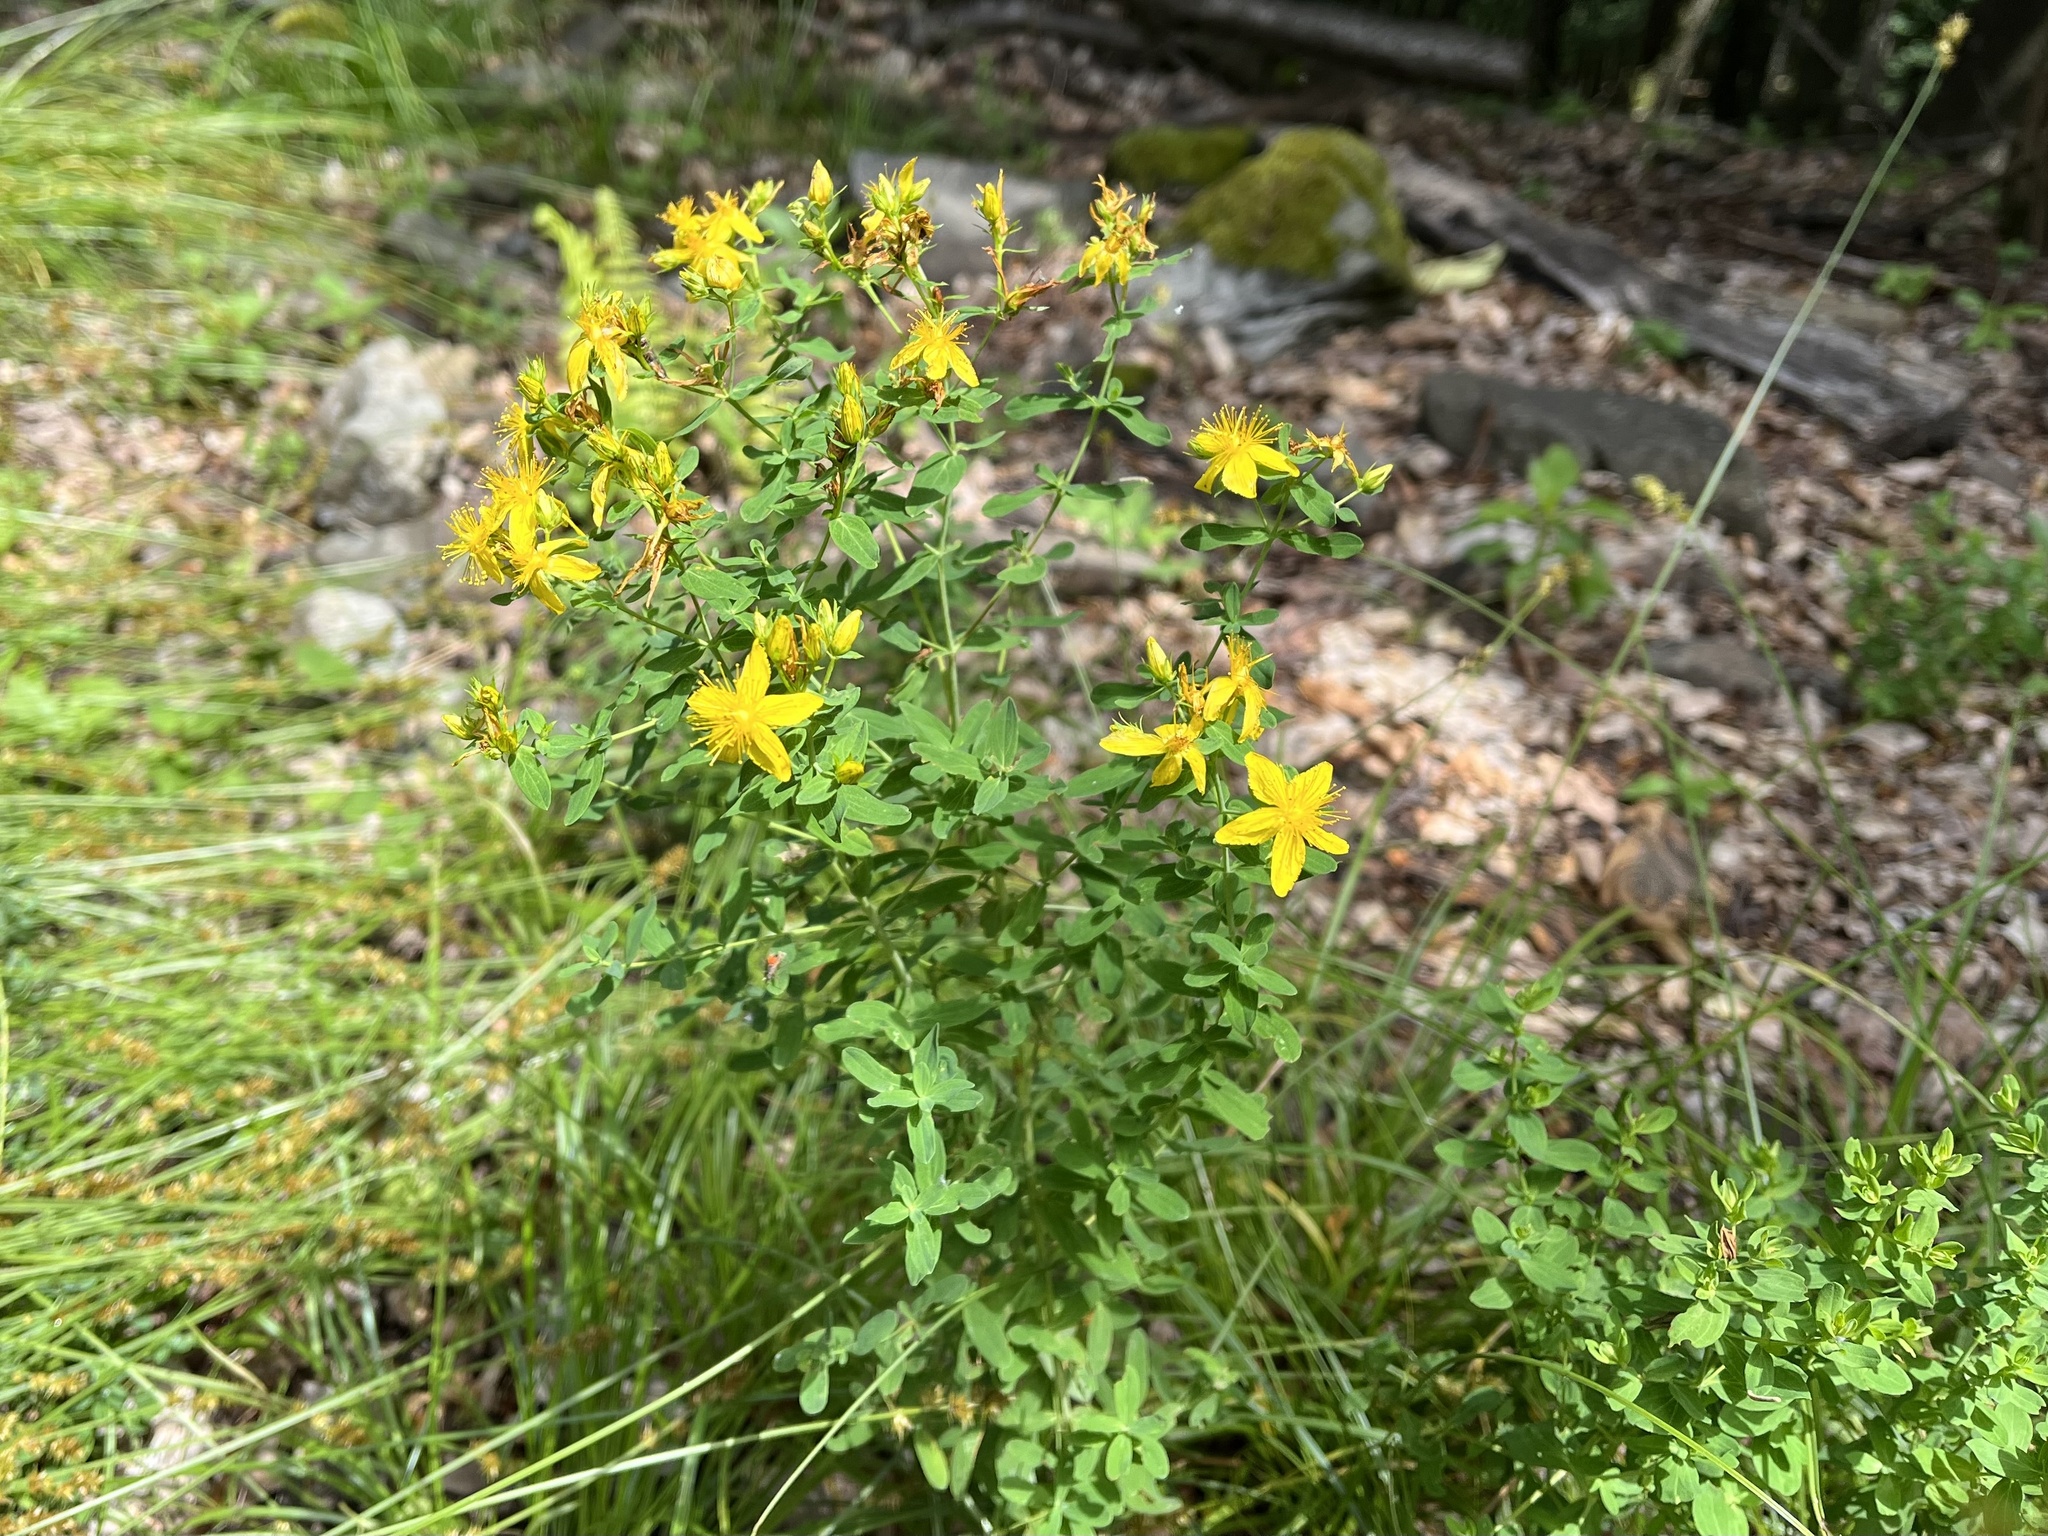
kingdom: Plantae
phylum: Tracheophyta
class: Magnoliopsida
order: Malpighiales
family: Hypericaceae
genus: Hypericum
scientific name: Hypericum perforatum
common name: Common st. johnswort
